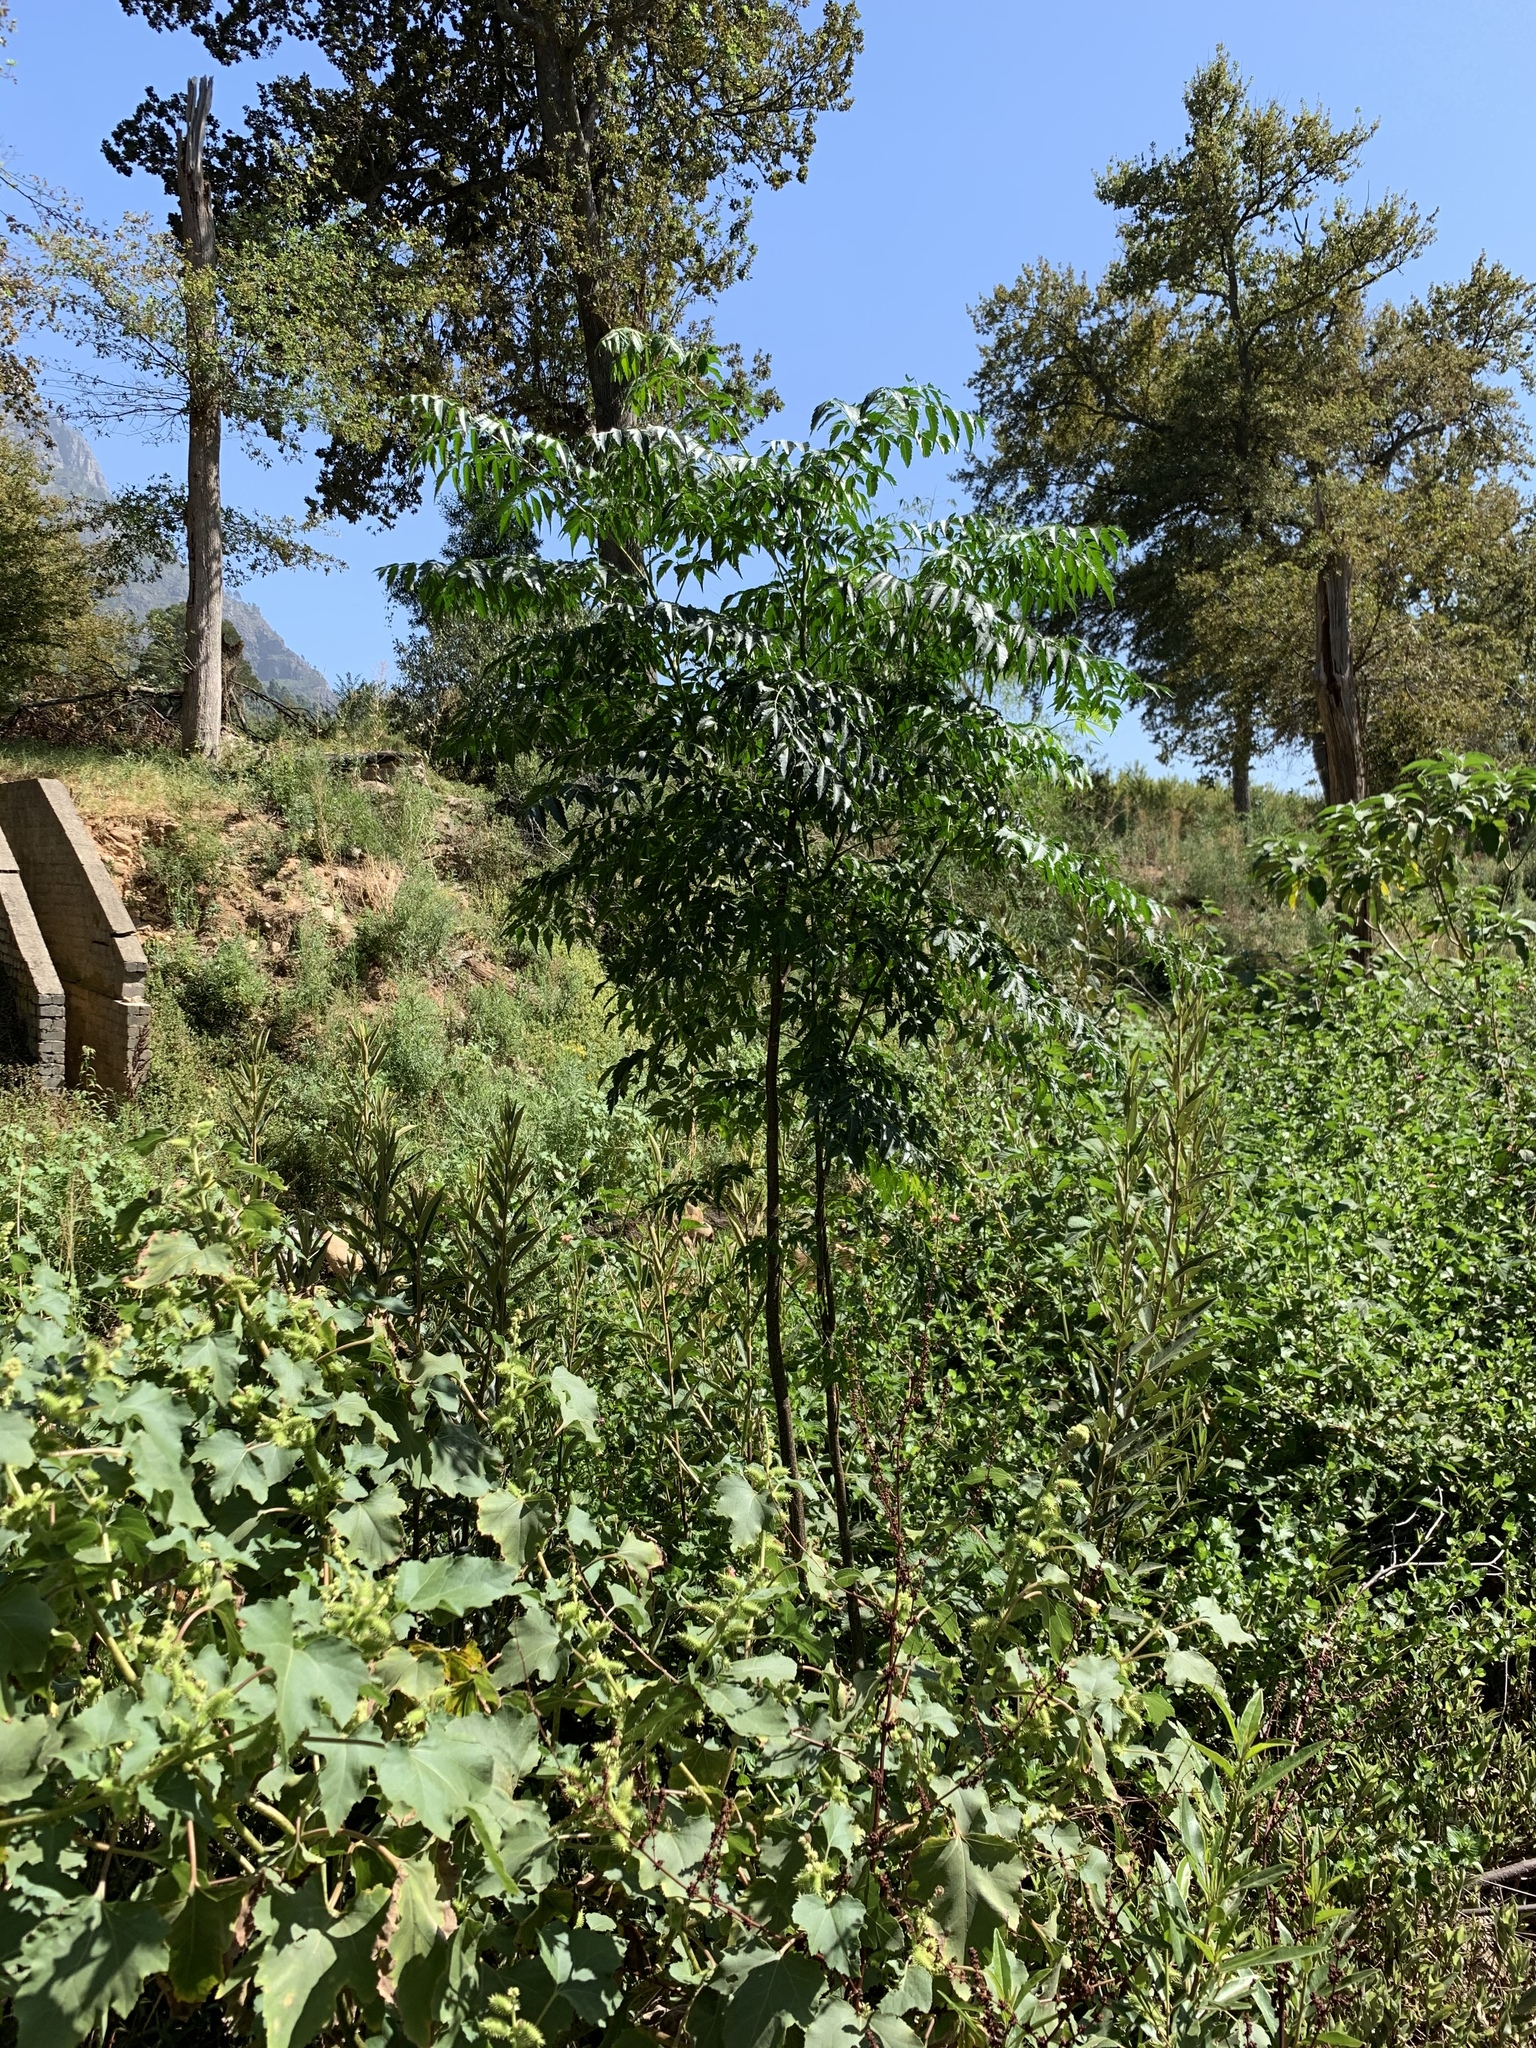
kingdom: Plantae
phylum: Tracheophyta
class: Magnoliopsida
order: Sapindales
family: Meliaceae
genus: Melia
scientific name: Melia azedarach
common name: Chinaberrytree
